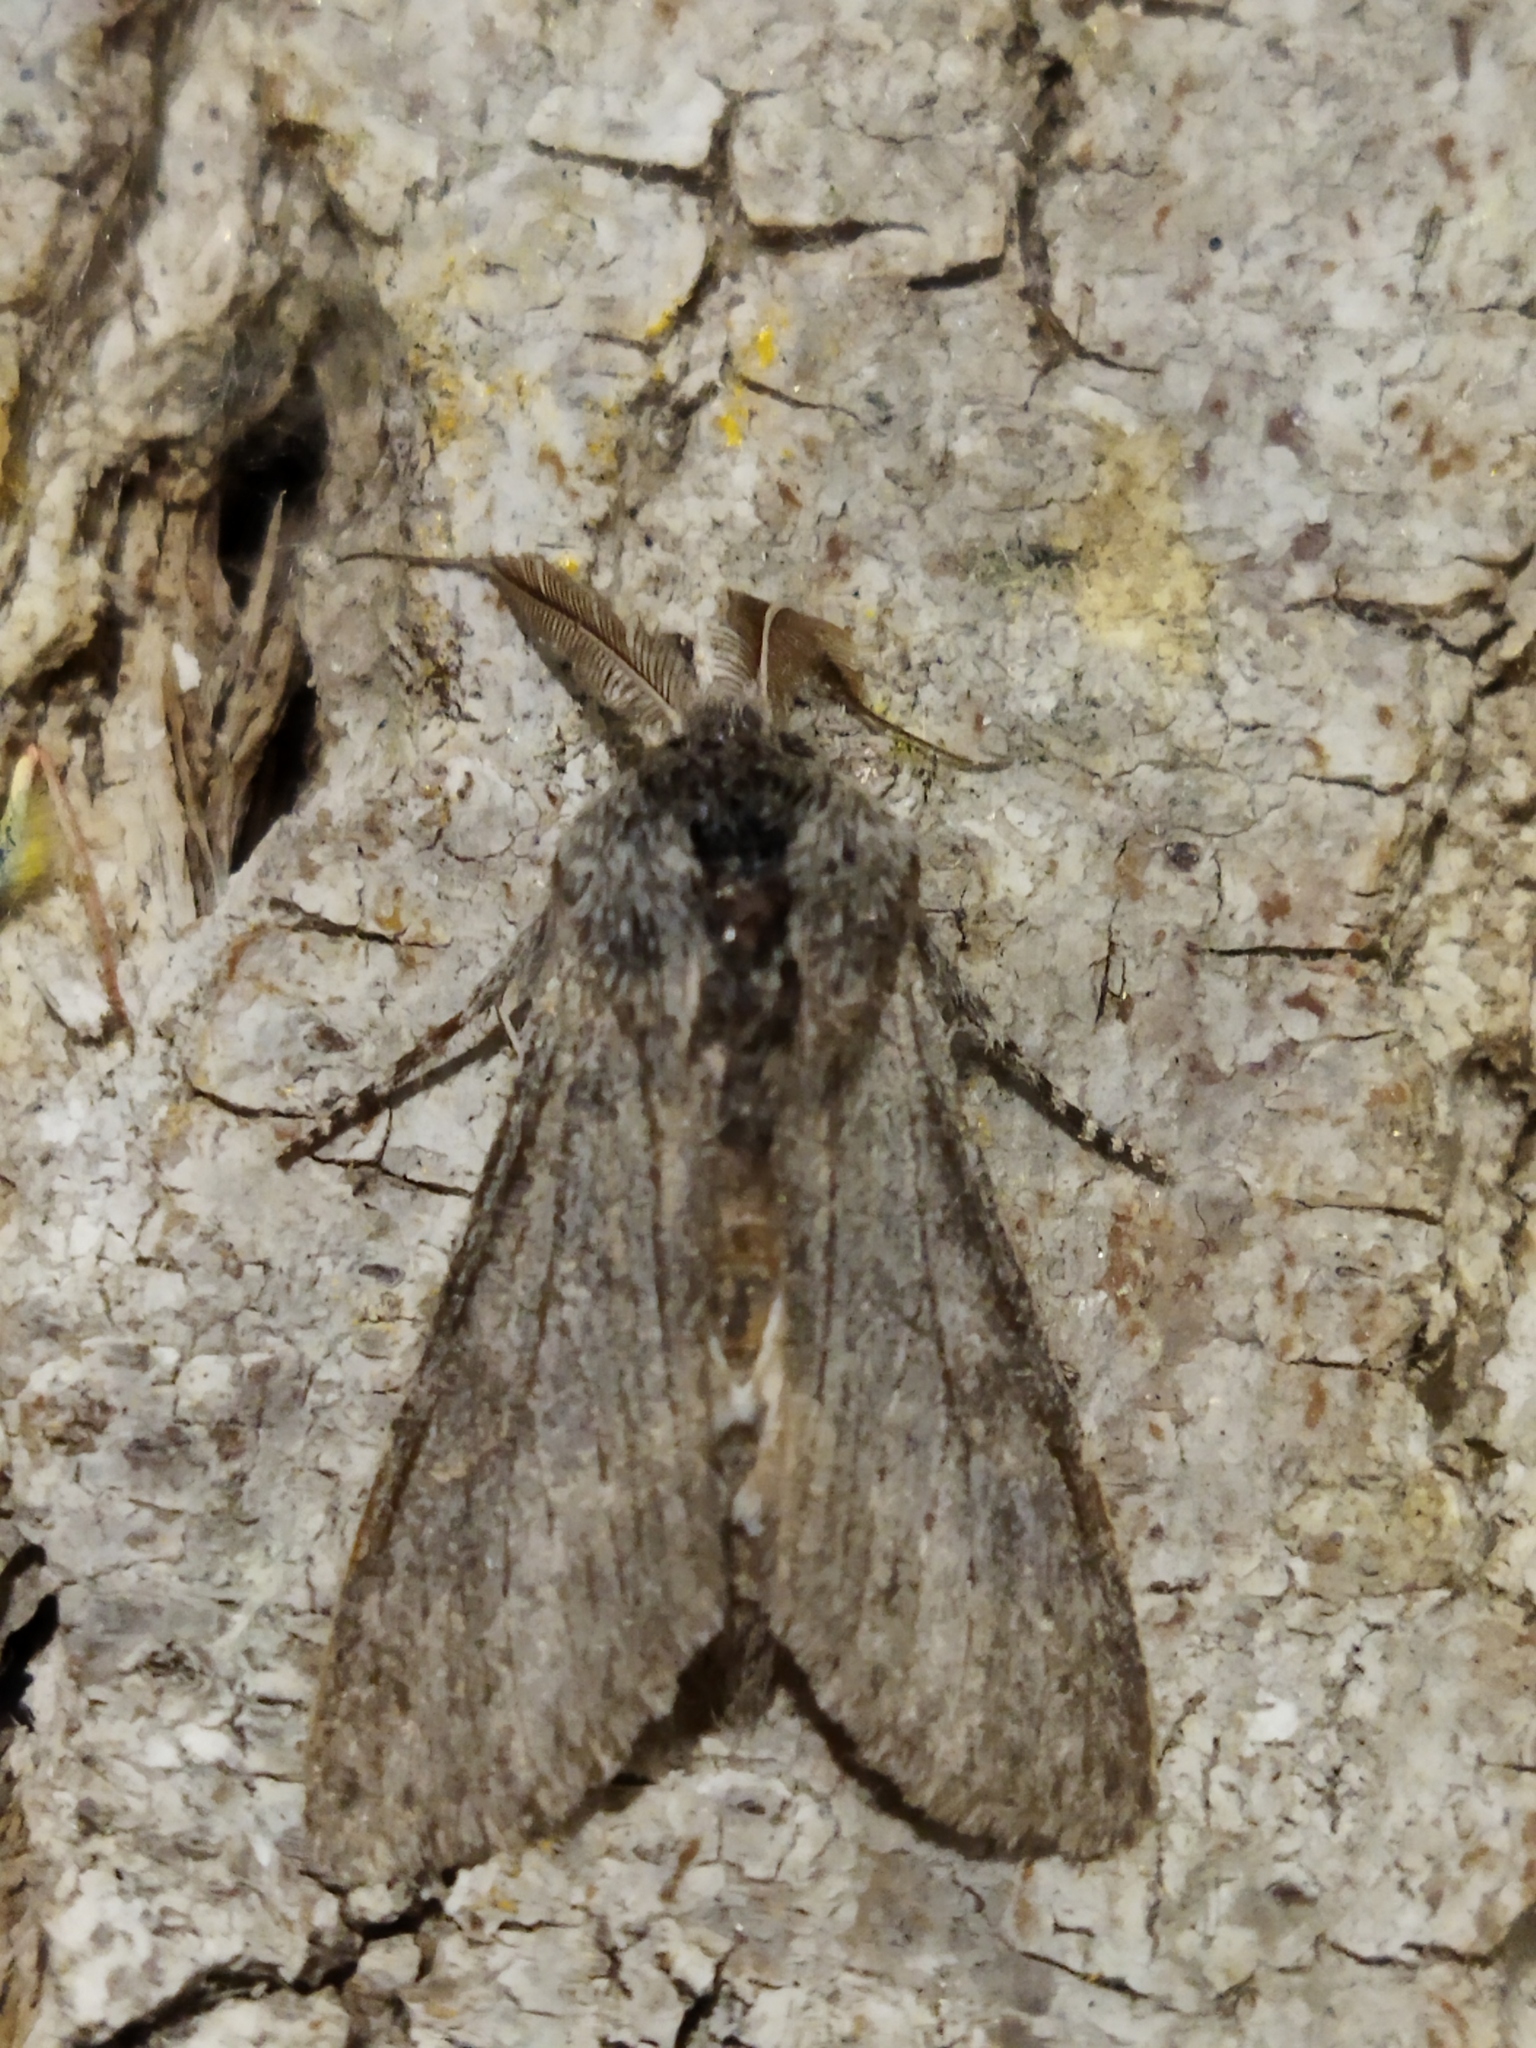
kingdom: Animalia
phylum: Arthropoda
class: Insecta
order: Lepidoptera
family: Notodontidae
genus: Dicranura
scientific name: Dicranura ulmi
